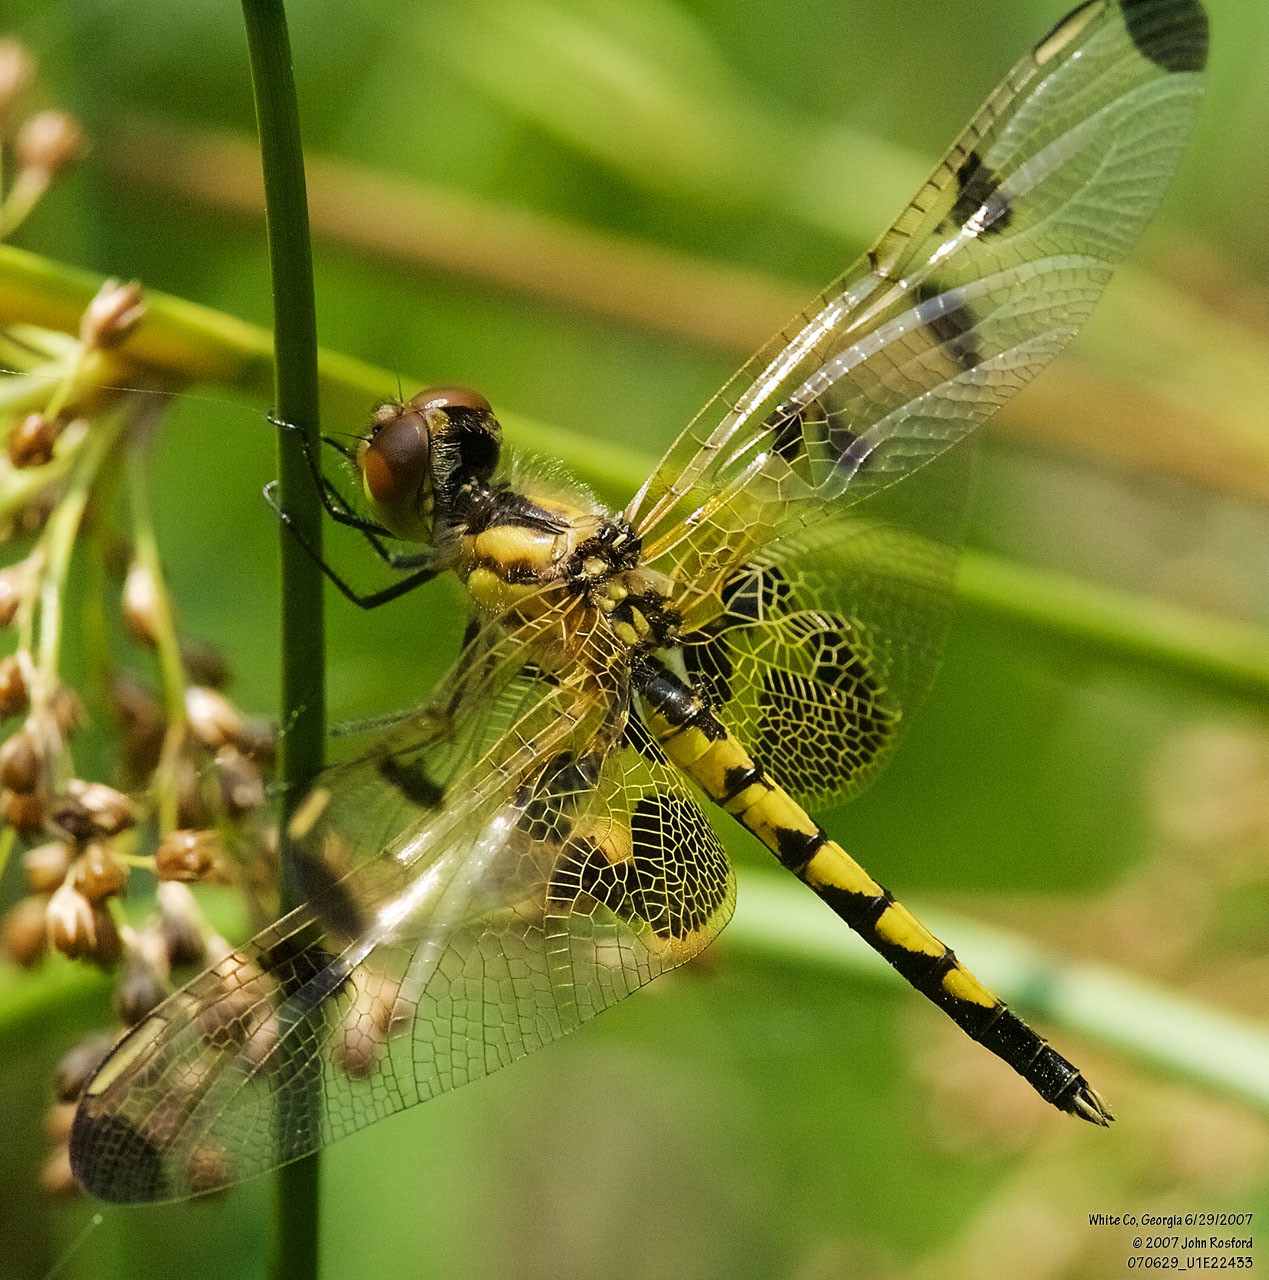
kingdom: Animalia
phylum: Arthropoda
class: Insecta
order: Odonata
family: Libellulidae
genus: Celithemis
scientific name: Celithemis elisa
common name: Calico pennant
